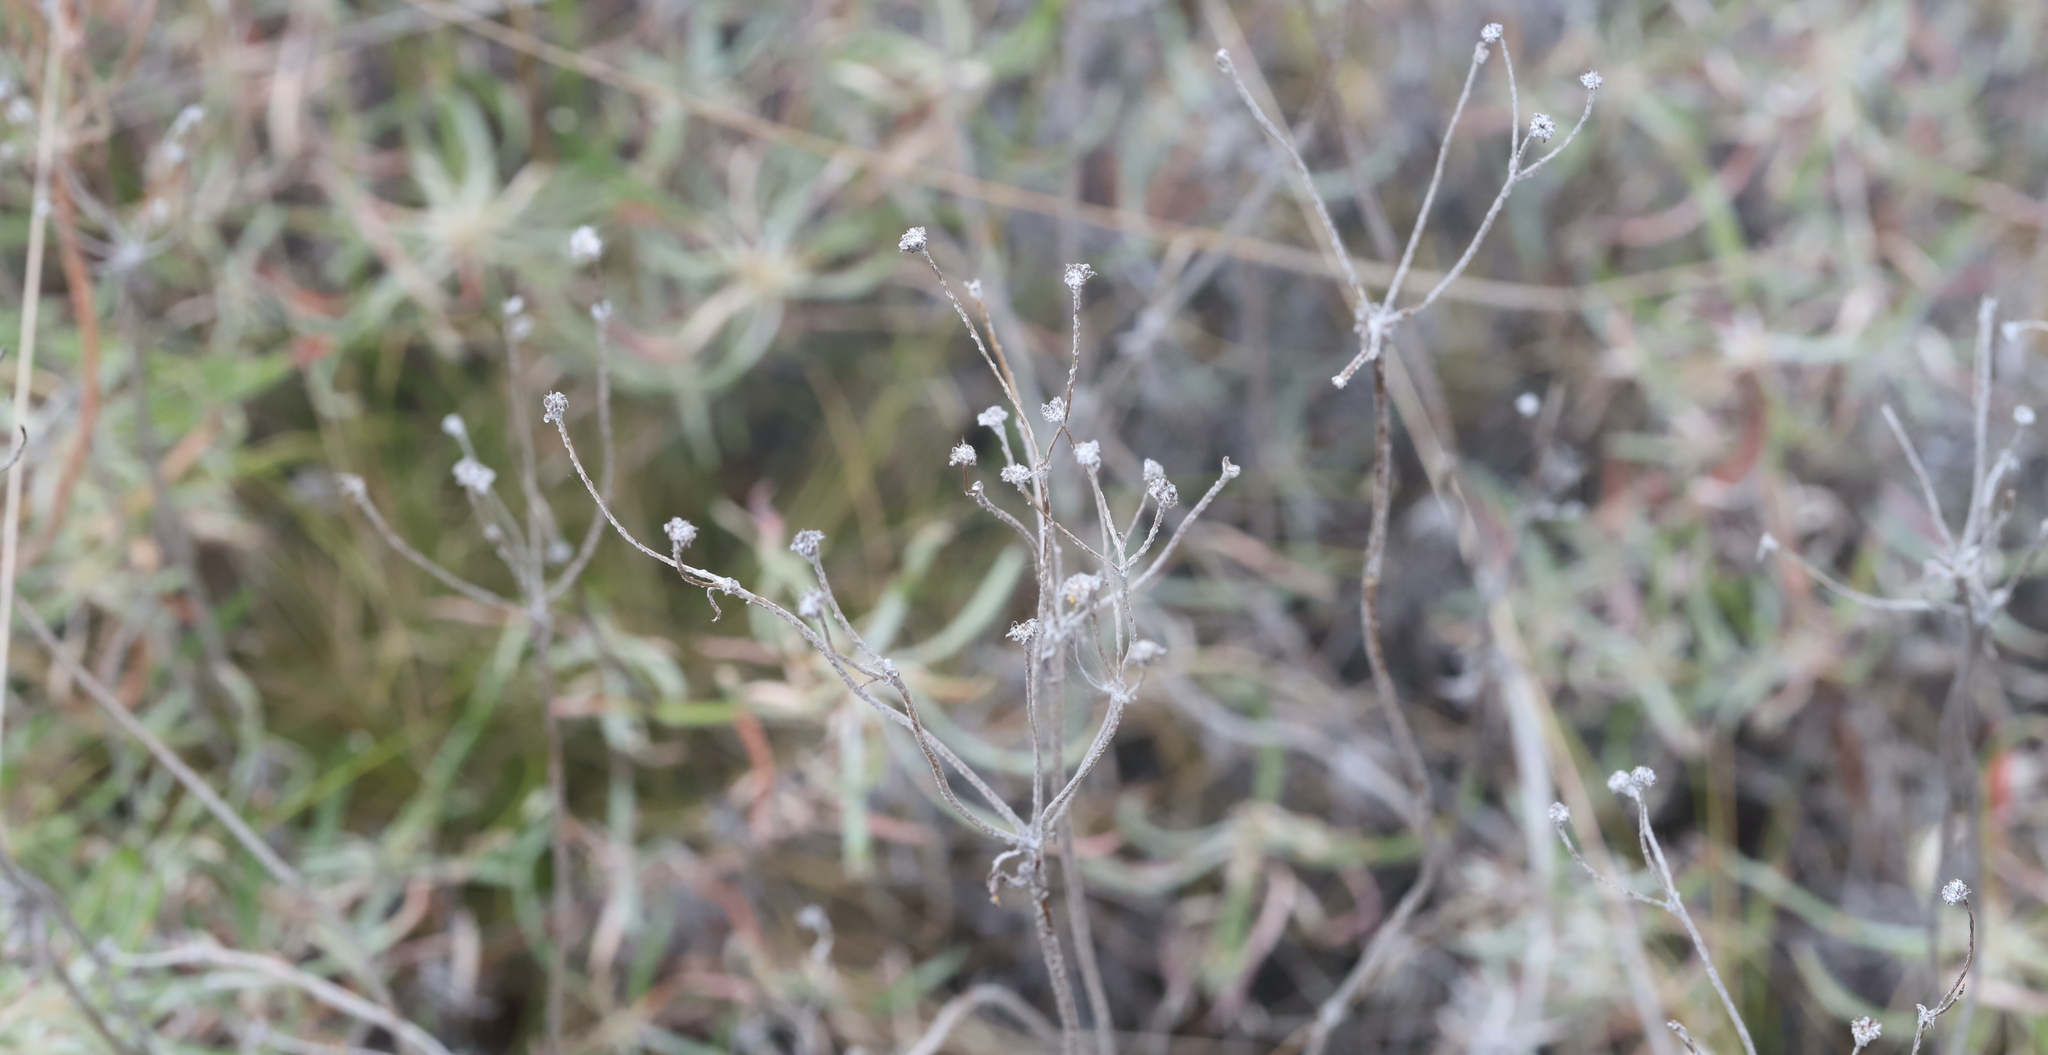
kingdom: Plantae
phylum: Tracheophyta
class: Magnoliopsida
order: Caryophyllales
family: Polygonaceae
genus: Eriogonum
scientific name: Eriogonum heracleoides
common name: Wyeth's buckwheat
